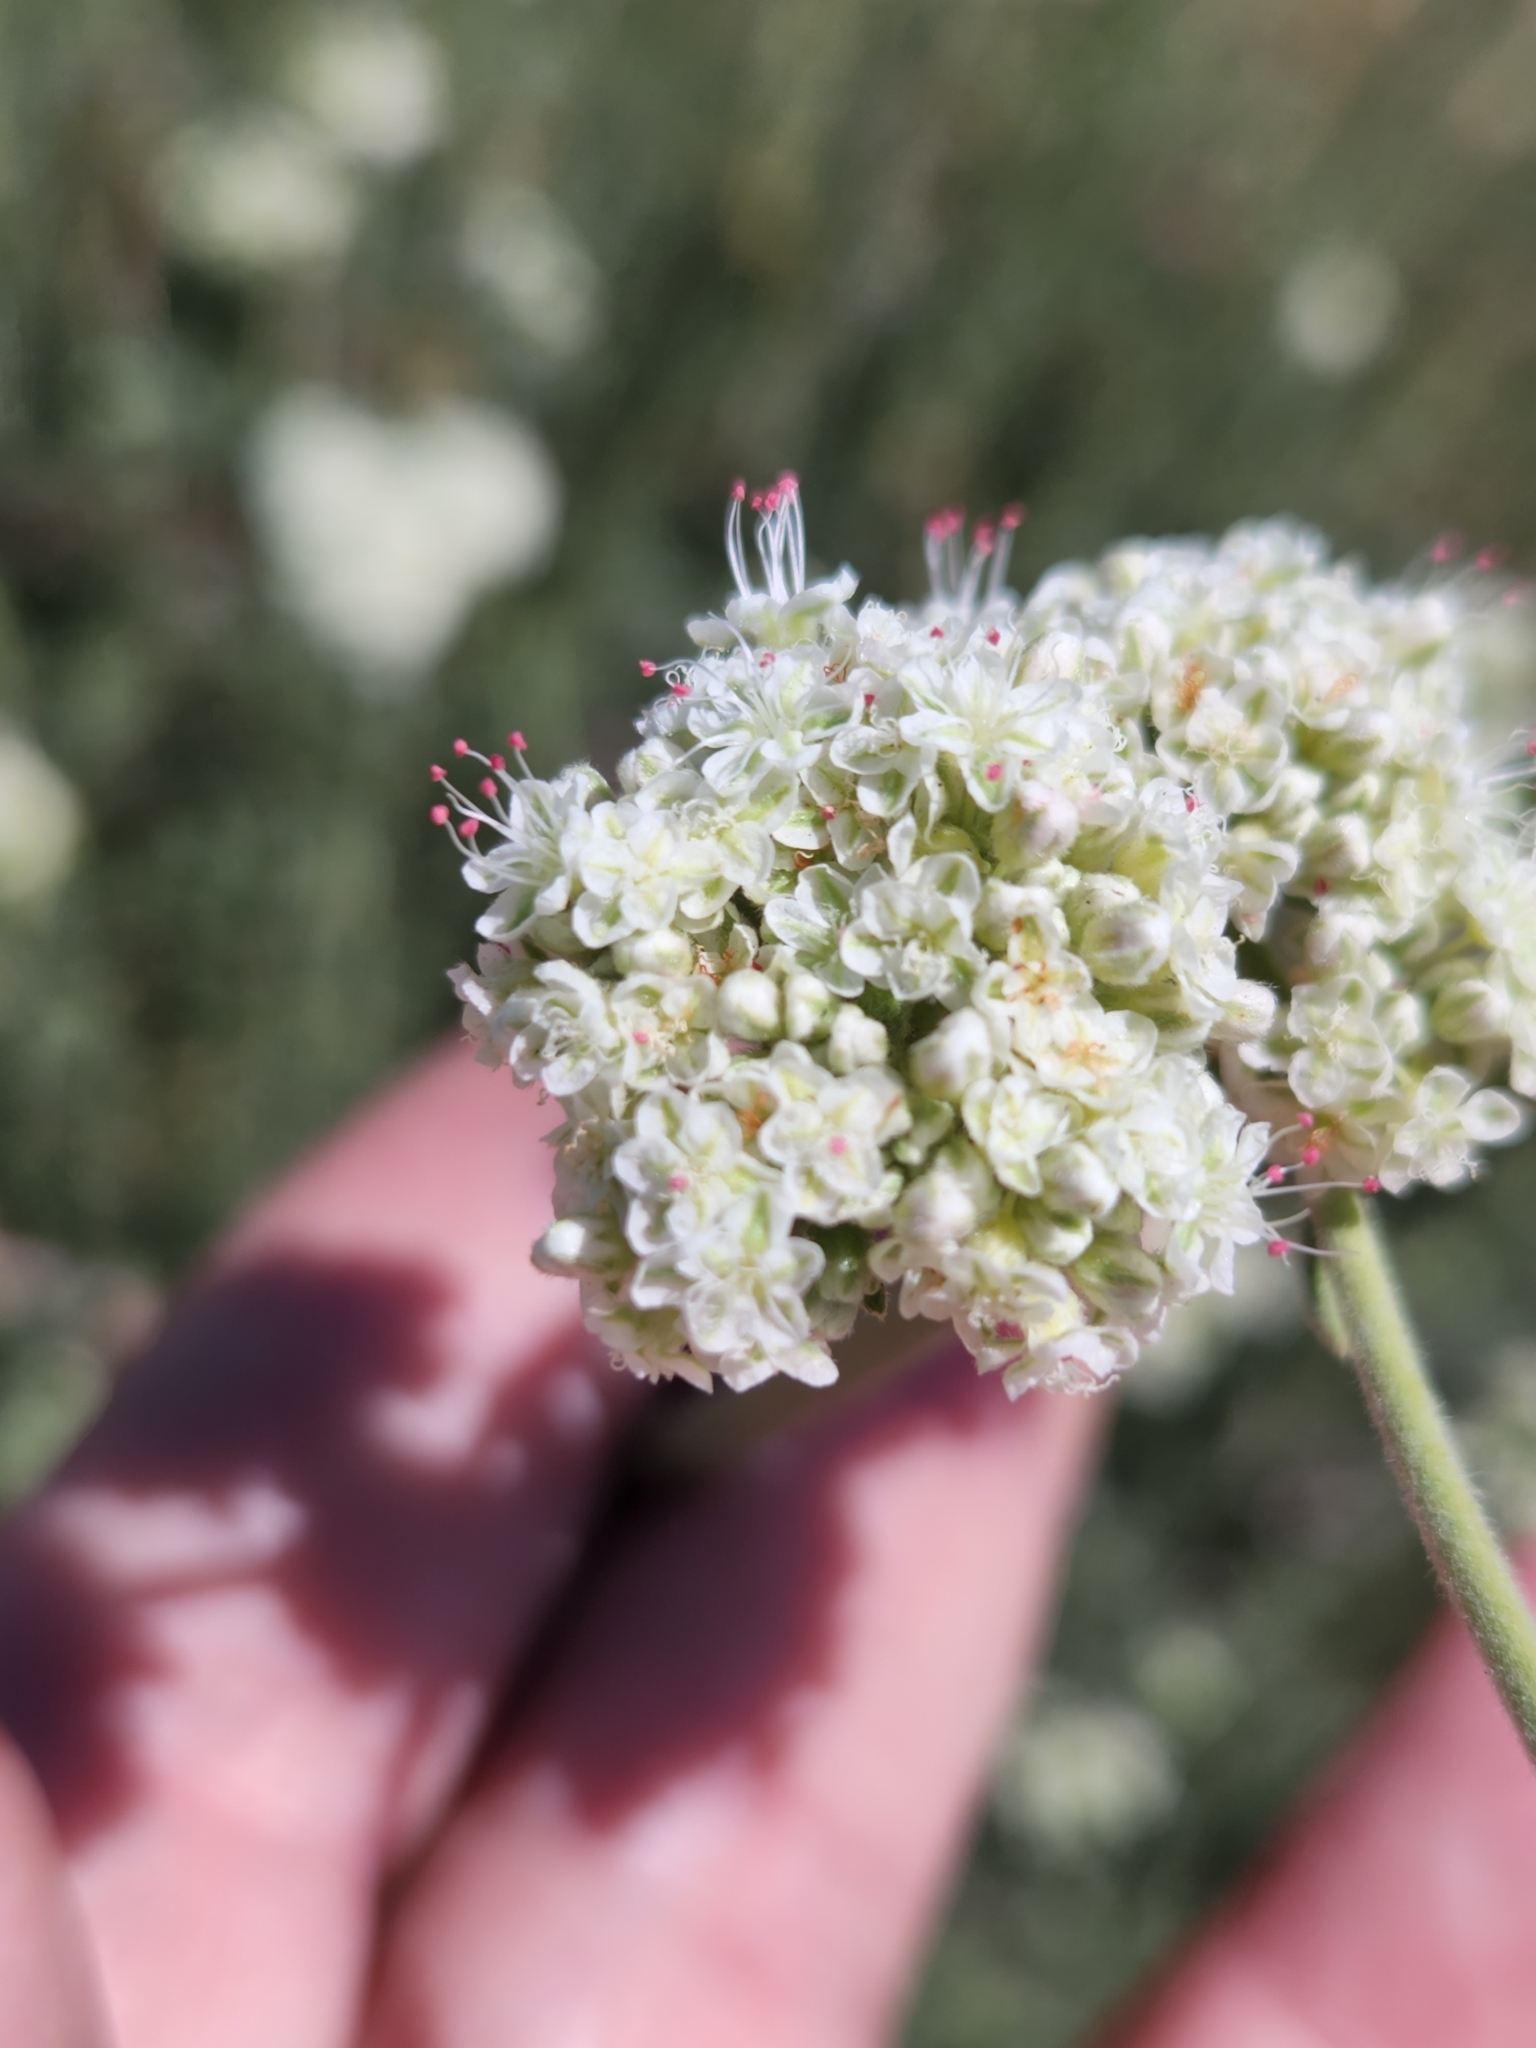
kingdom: Plantae
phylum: Tracheophyta
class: Magnoliopsida
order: Caryophyllales
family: Polygonaceae
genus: Eriogonum
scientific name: Eriogonum fasciculatum
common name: California wild buckwheat
